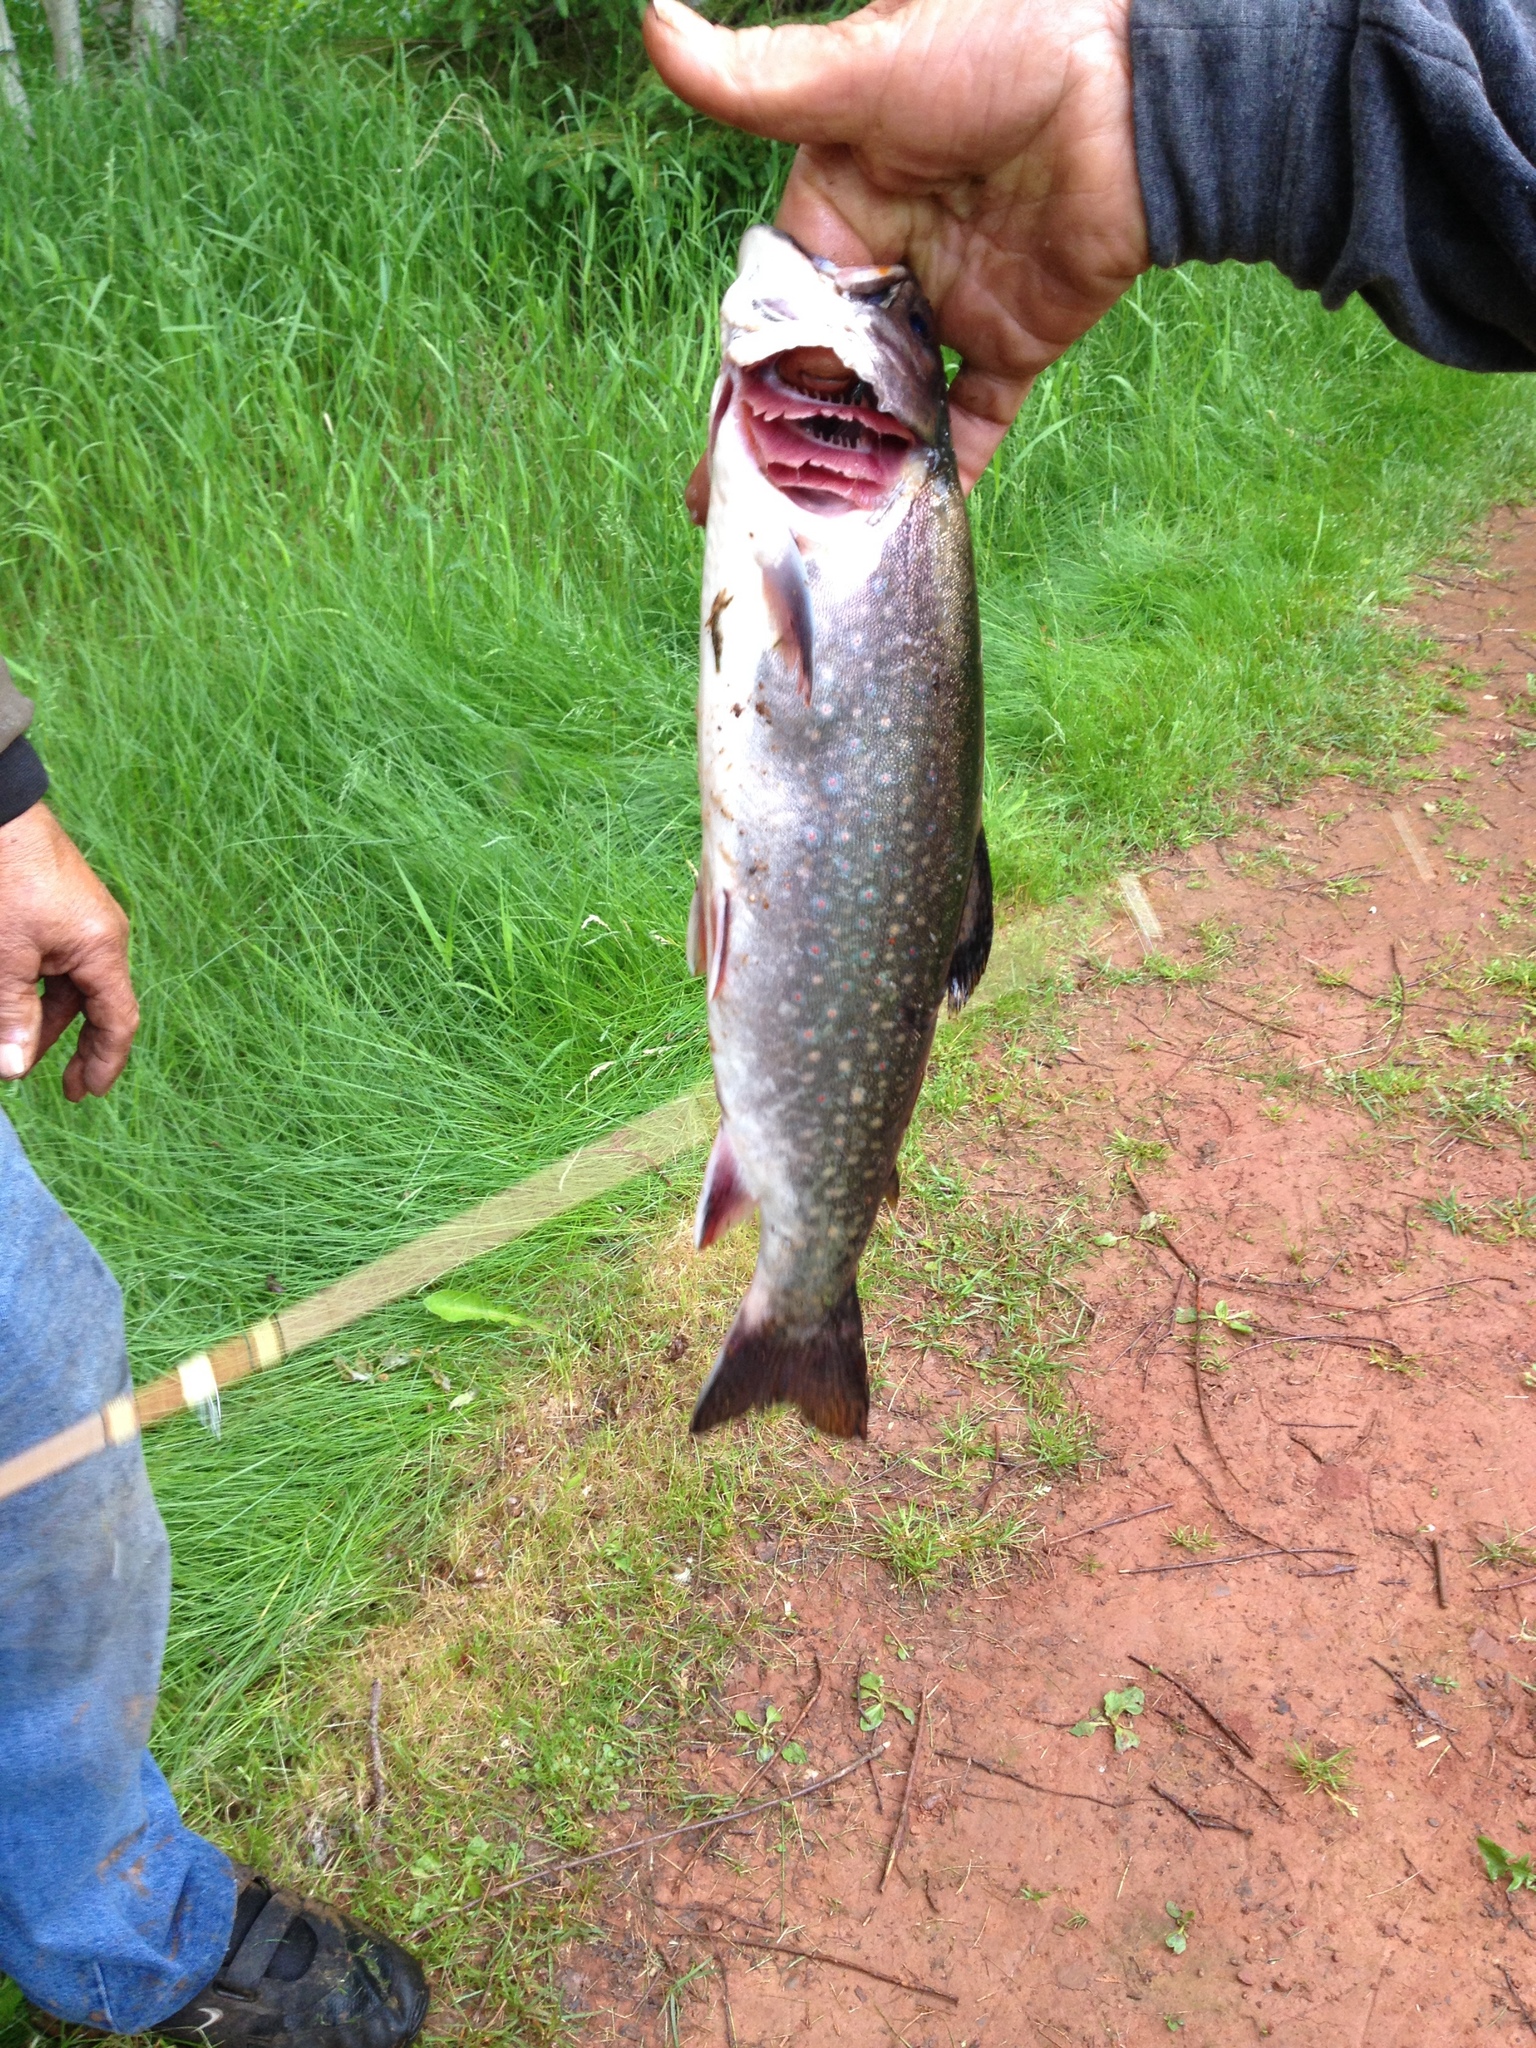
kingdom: Animalia
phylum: Chordata
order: Salmoniformes
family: Salmonidae
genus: Salvelinus
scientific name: Salvelinus fontinalis
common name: Brook trout
